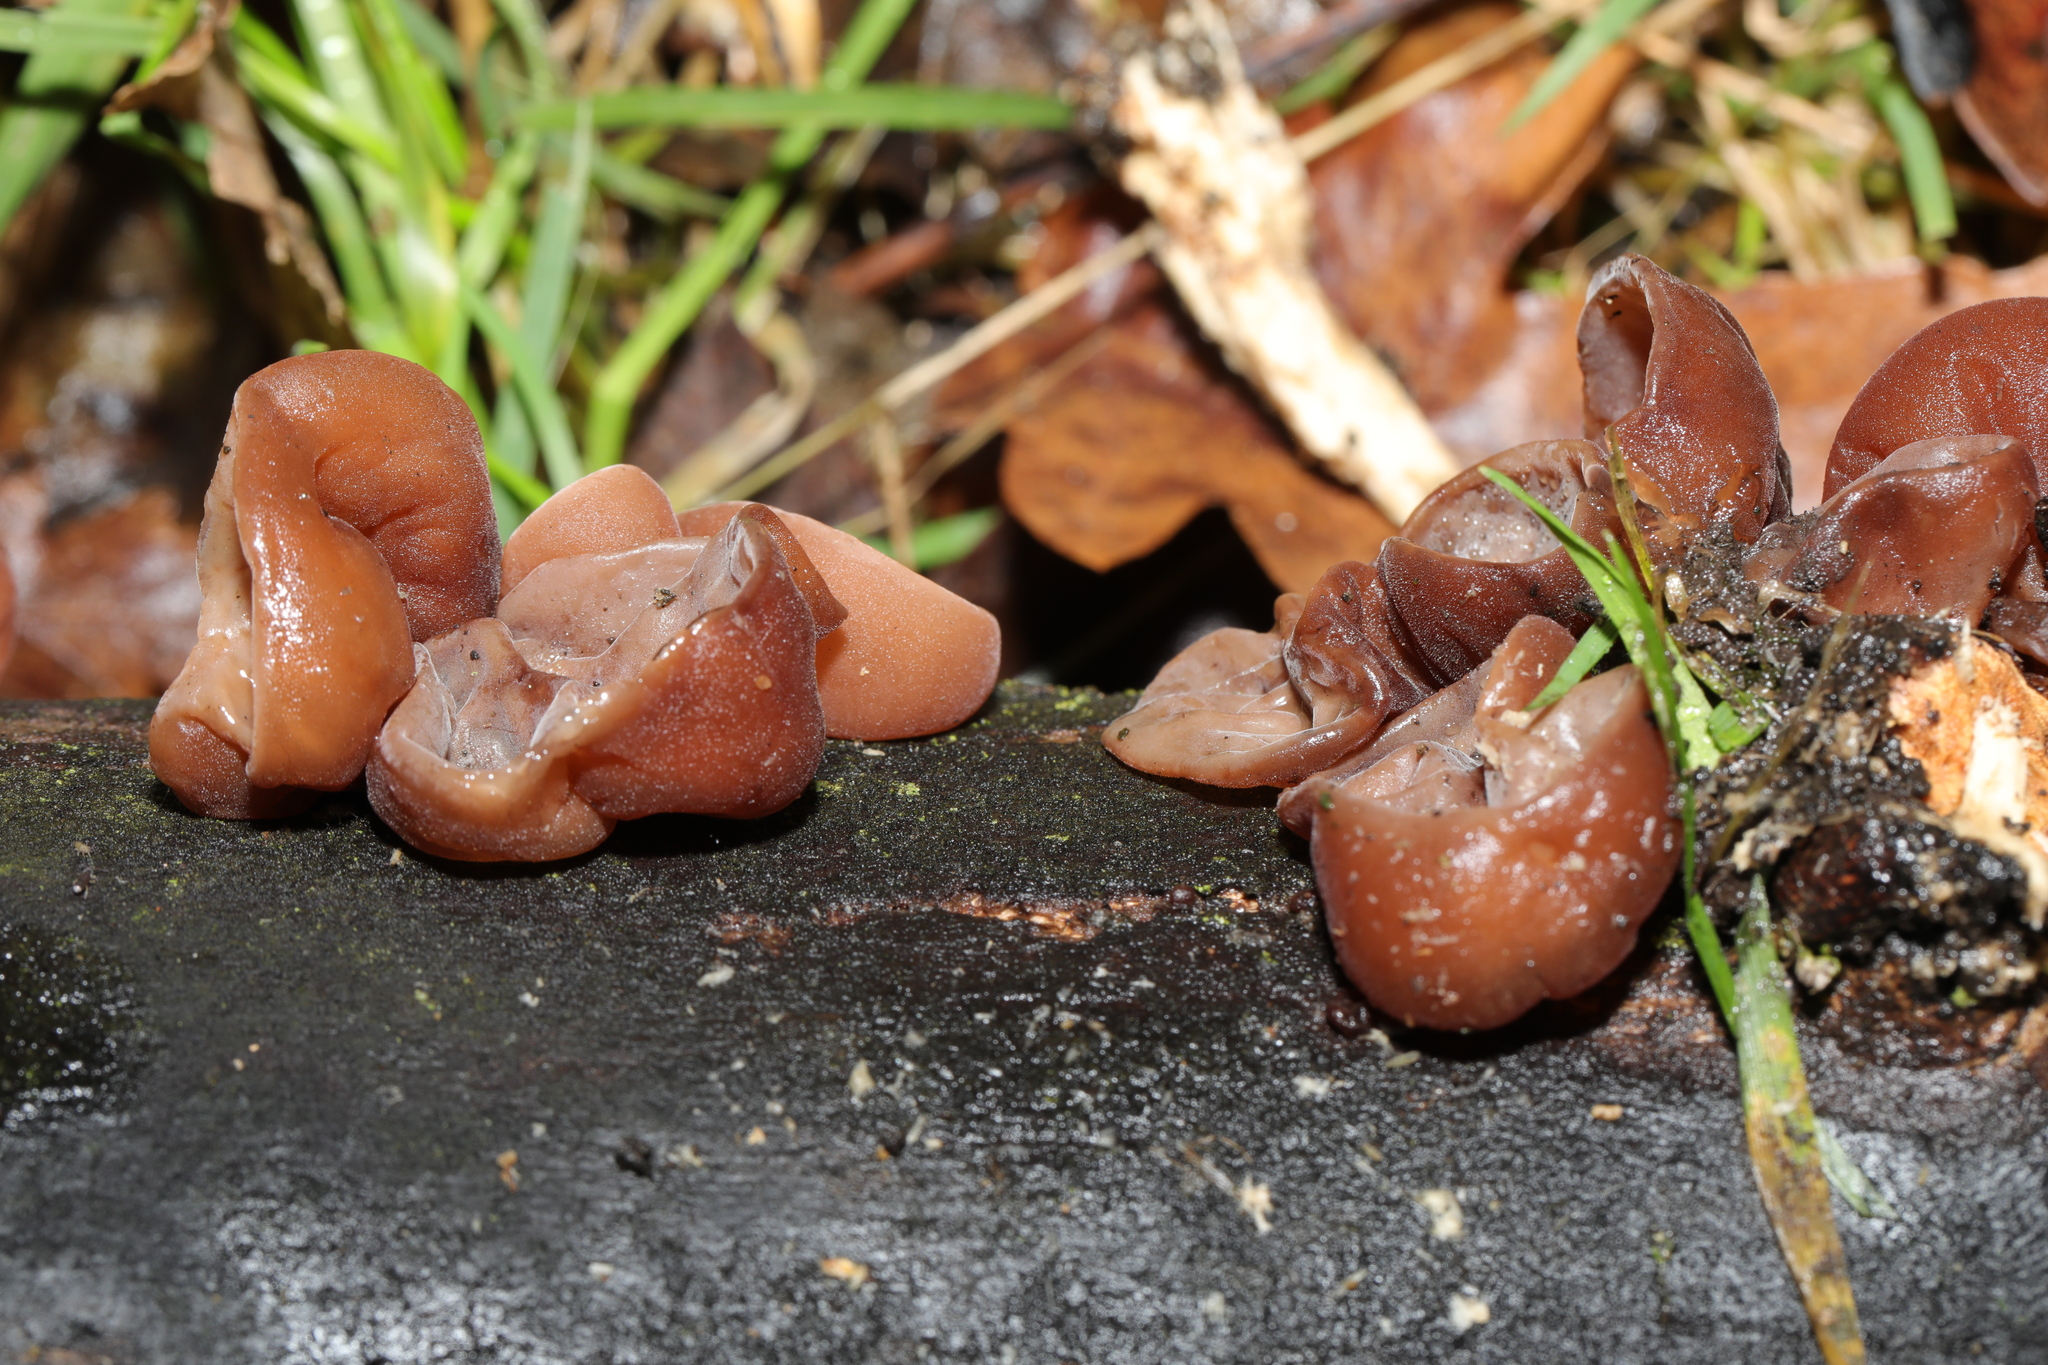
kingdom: Fungi
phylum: Basidiomycota
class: Agaricomycetes
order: Auriculariales
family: Auriculariaceae
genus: Auricularia
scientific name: Auricularia auricula-judae
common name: Jelly ear
